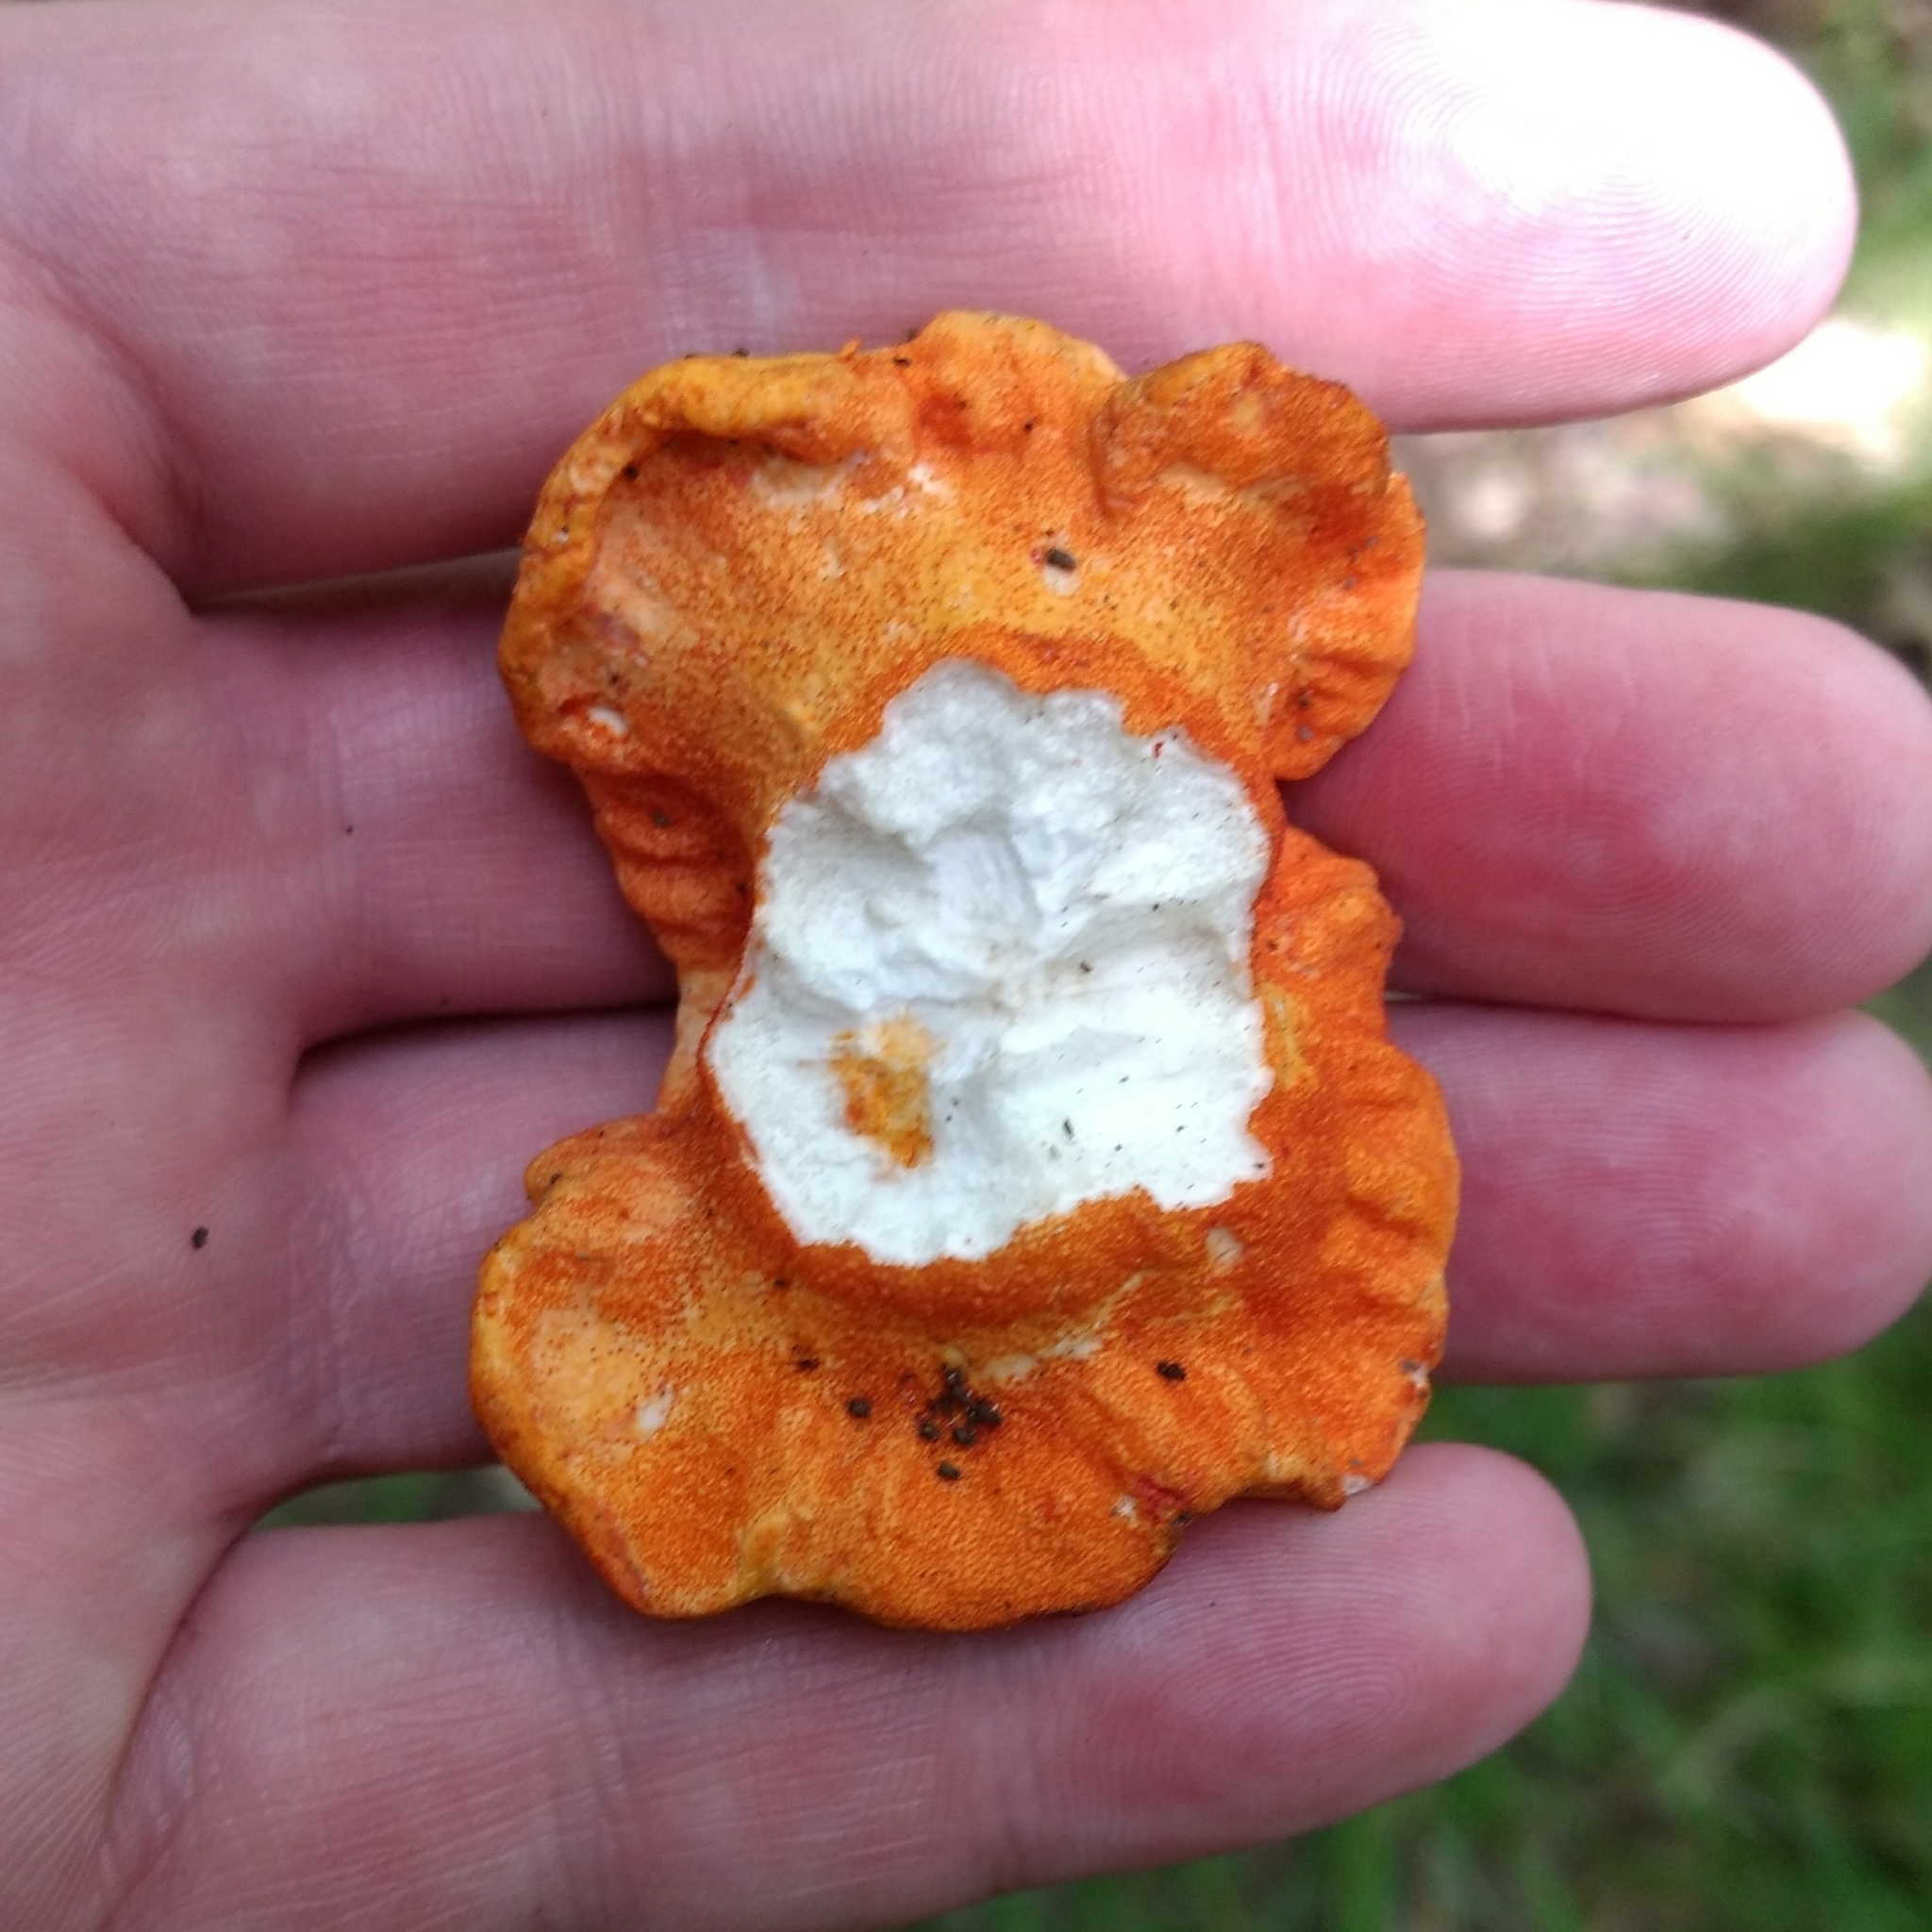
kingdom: Fungi
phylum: Ascomycota
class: Sordariomycetes
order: Hypocreales
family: Hypocreaceae
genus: Hypomyces
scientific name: Hypomyces lactifluorum
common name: Lobster mushroom
